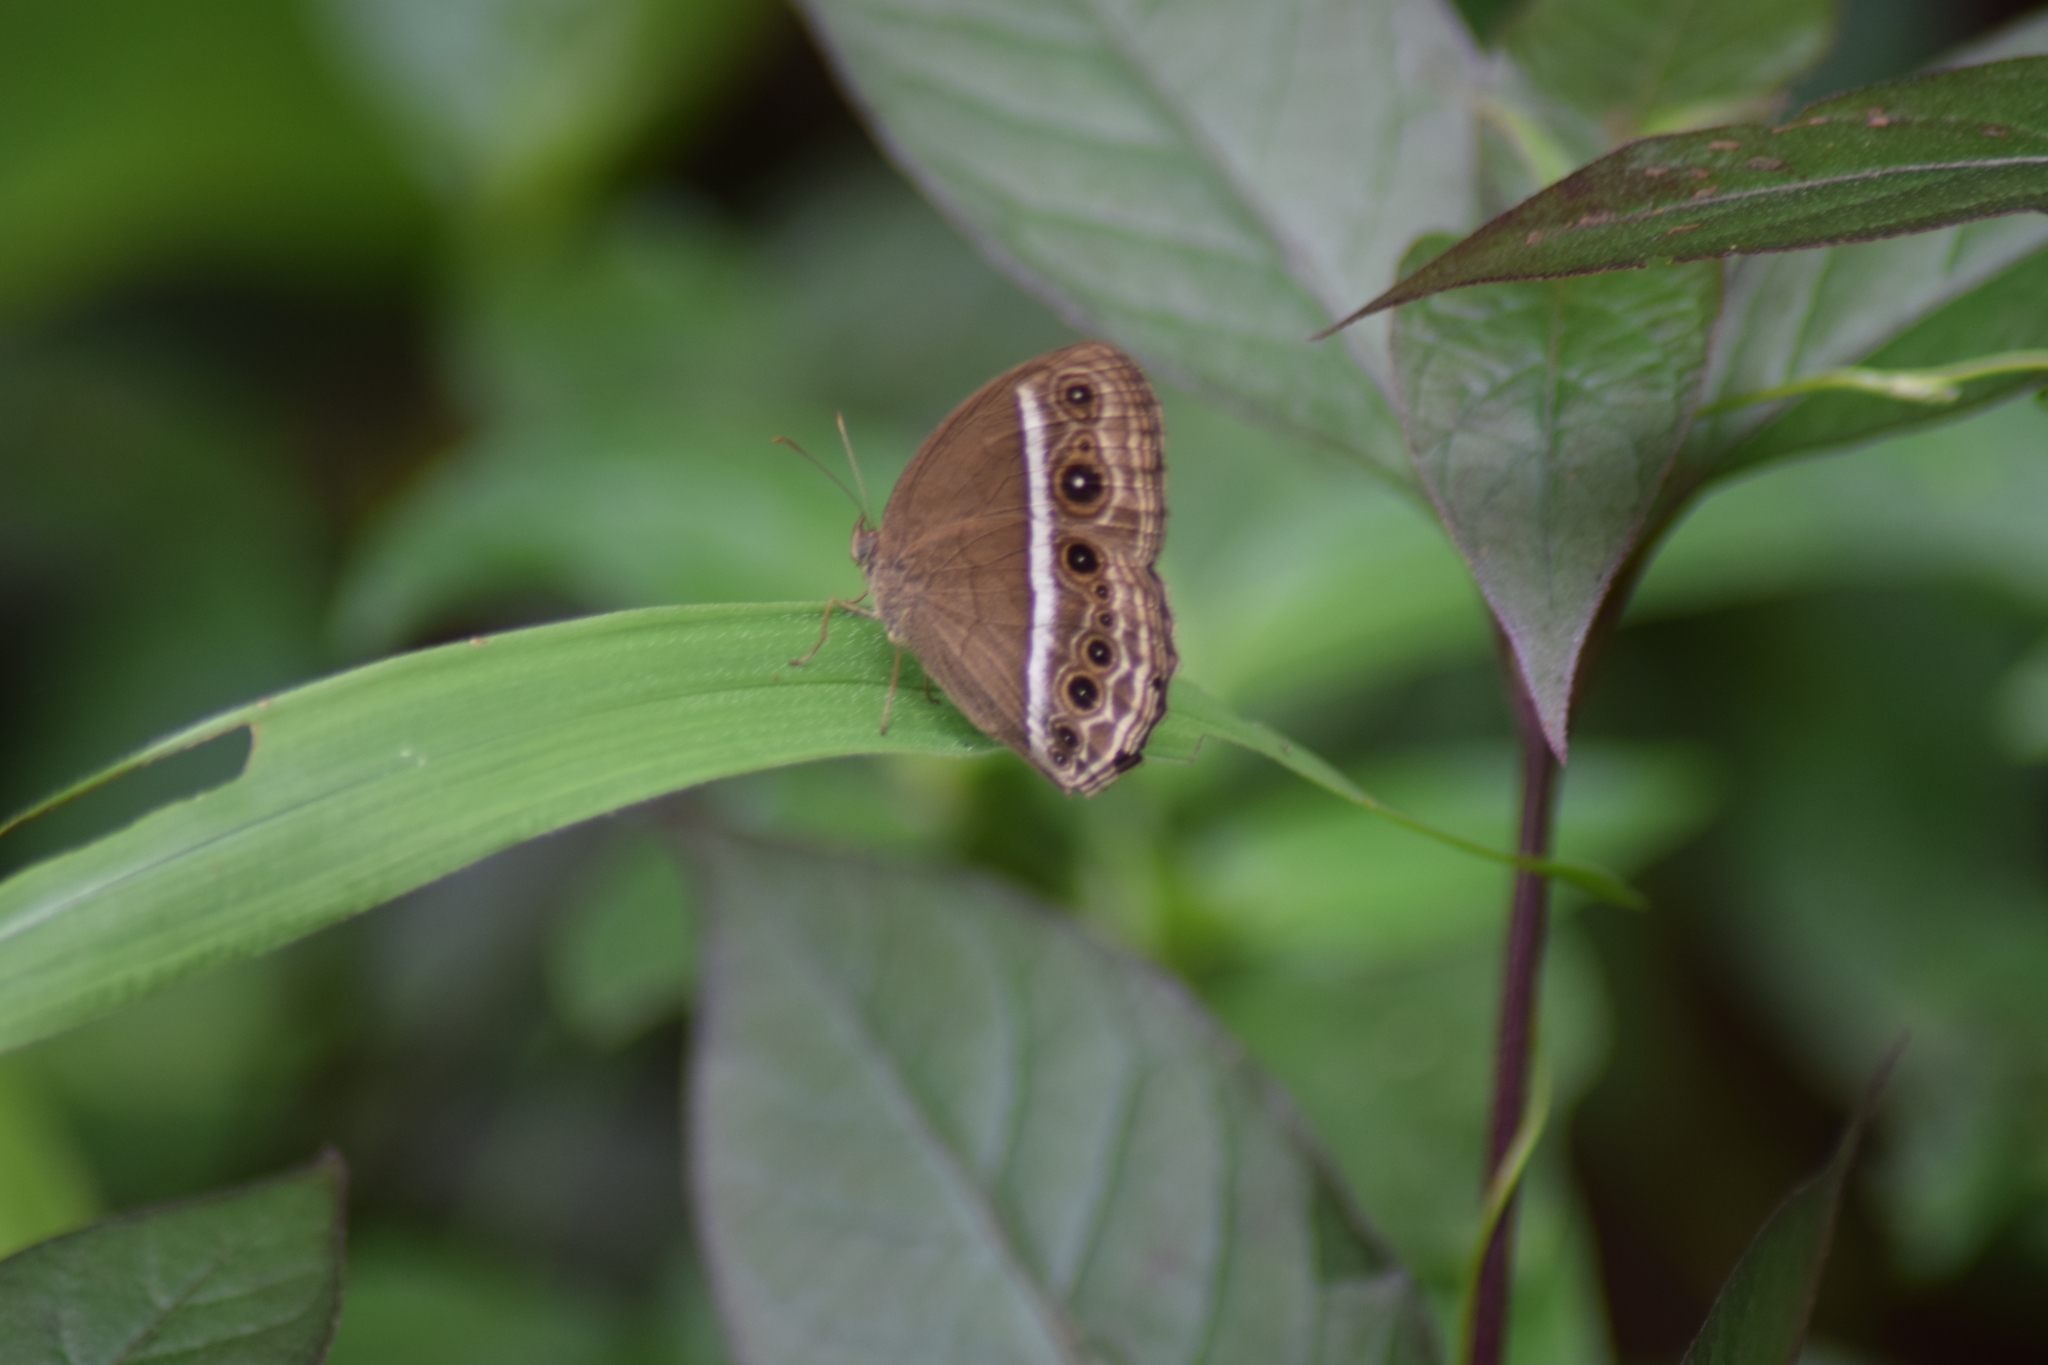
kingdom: Animalia
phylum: Arthropoda
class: Insecta
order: Lepidoptera
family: Nymphalidae
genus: Mycalesis
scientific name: Mycalesis mineus
